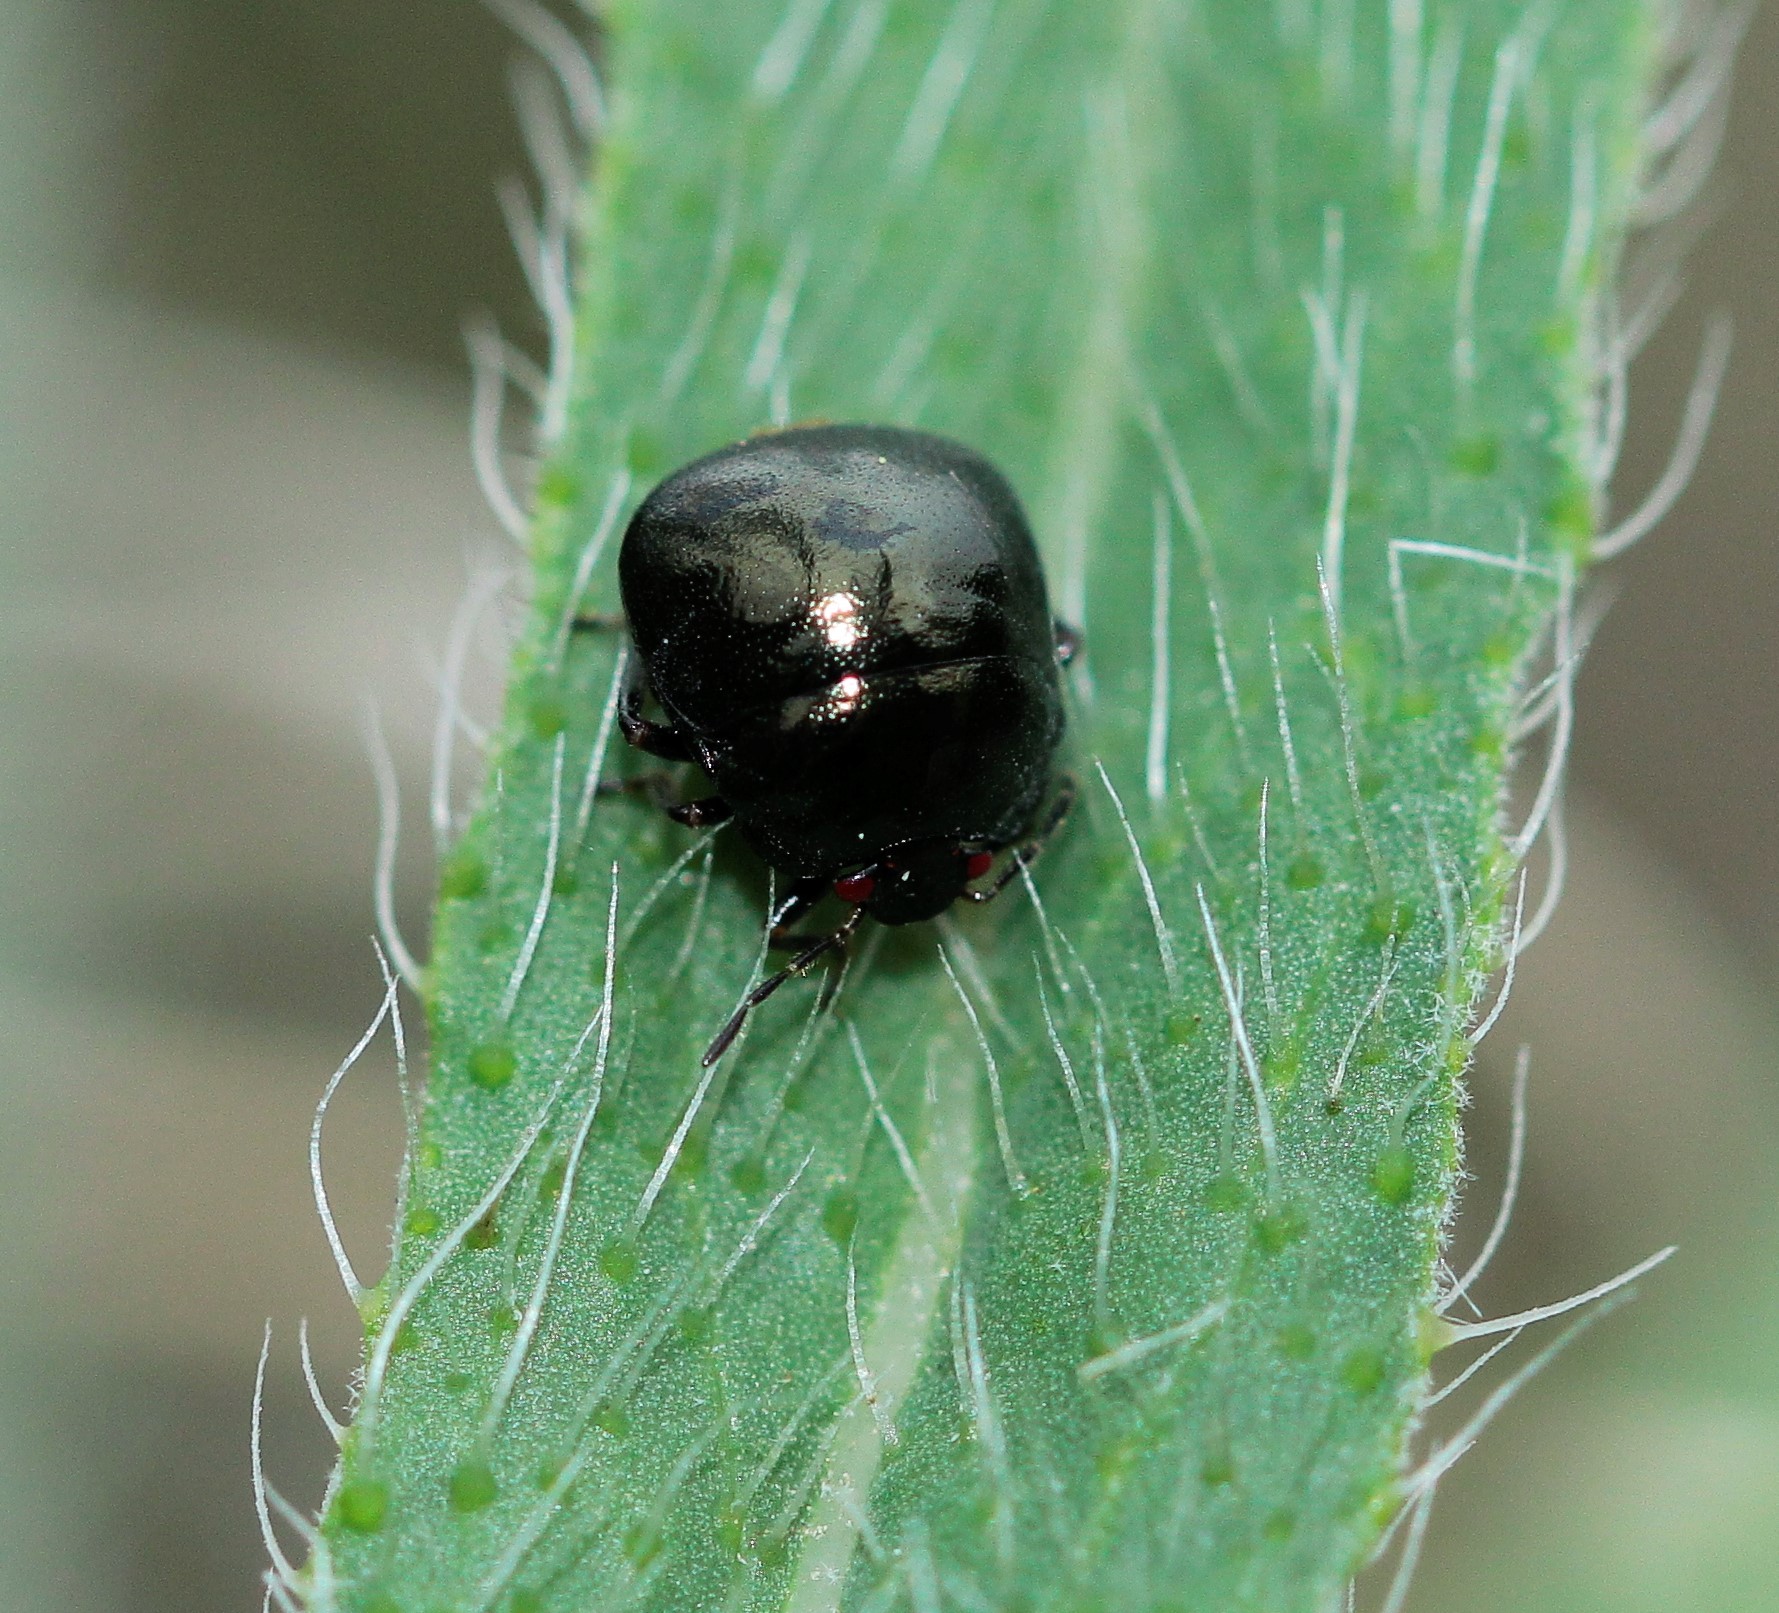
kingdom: Animalia
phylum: Arthropoda
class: Insecta
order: Hemiptera
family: Plataspidae
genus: Coptosoma
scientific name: Coptosoma scutellatum
